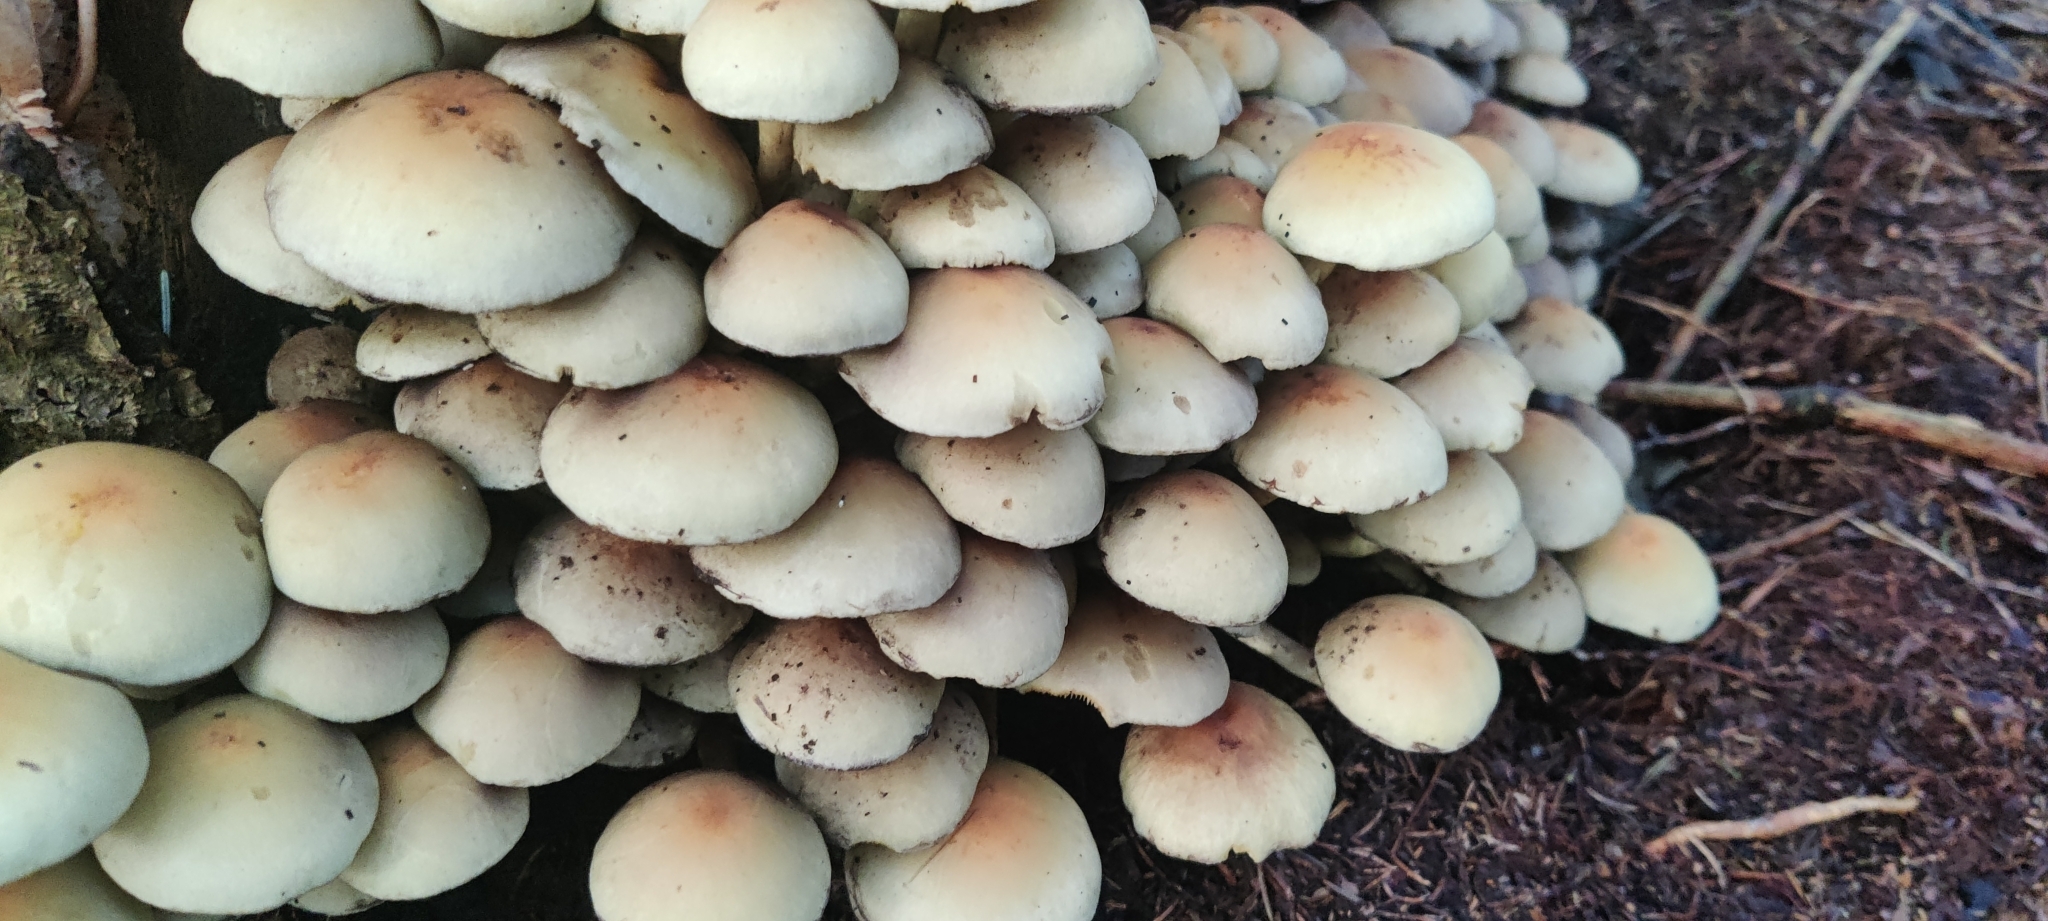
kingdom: Fungi
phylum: Basidiomycota
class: Agaricomycetes
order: Agaricales
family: Strophariaceae
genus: Hypholoma
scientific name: Hypholoma fasciculare
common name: Sulphur tuft
